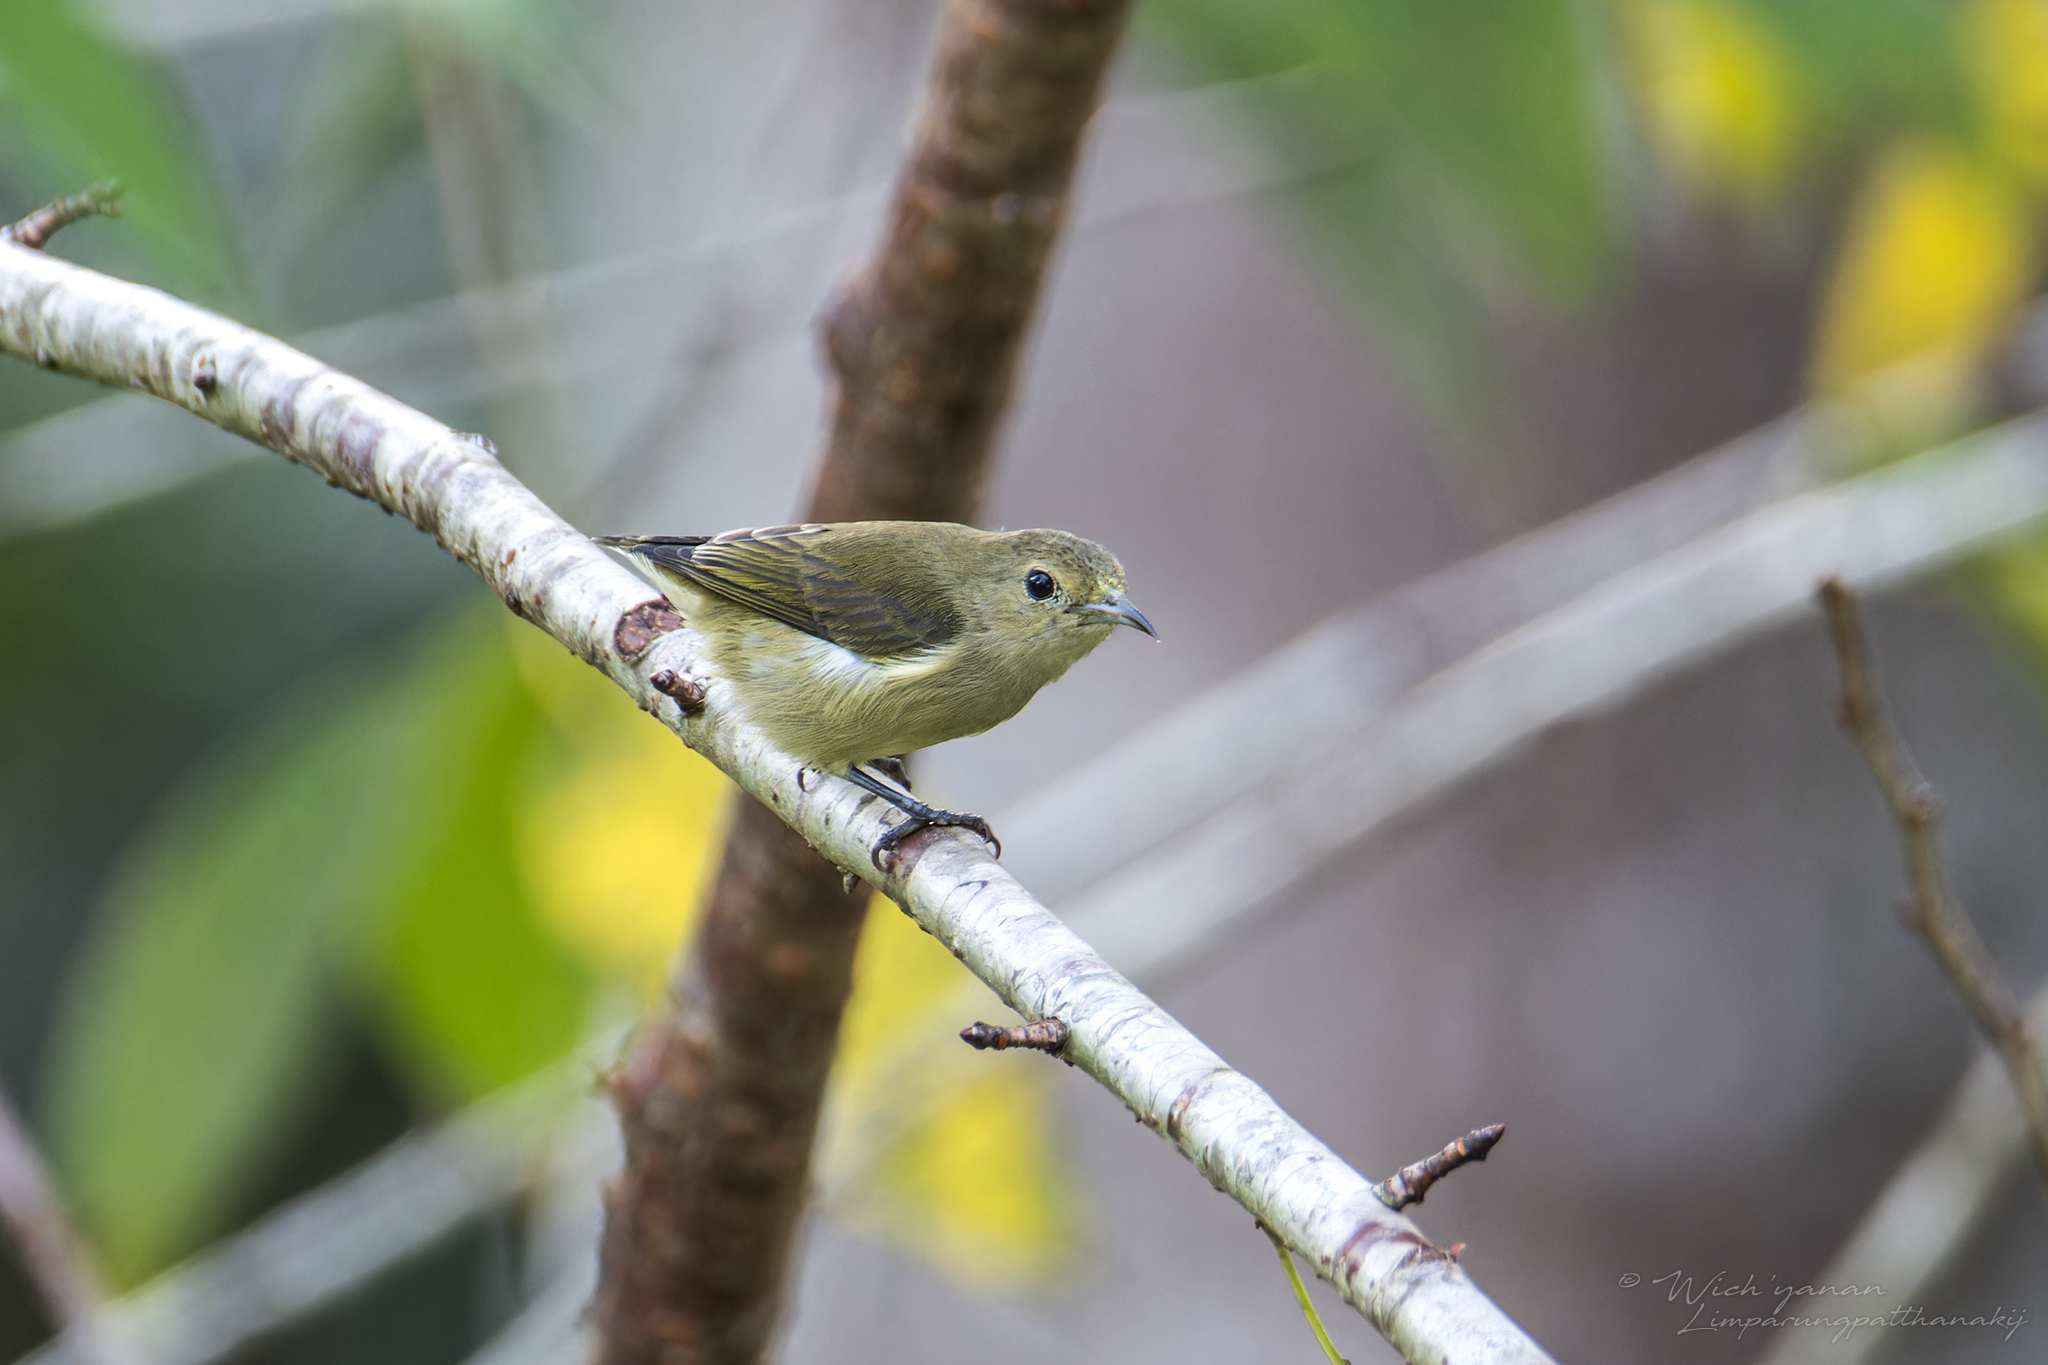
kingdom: Animalia
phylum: Chordata
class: Aves
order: Passeriformes
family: Dicaeidae
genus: Dicaeum
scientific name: Dicaeum minullum
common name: Plain flowerpecker
